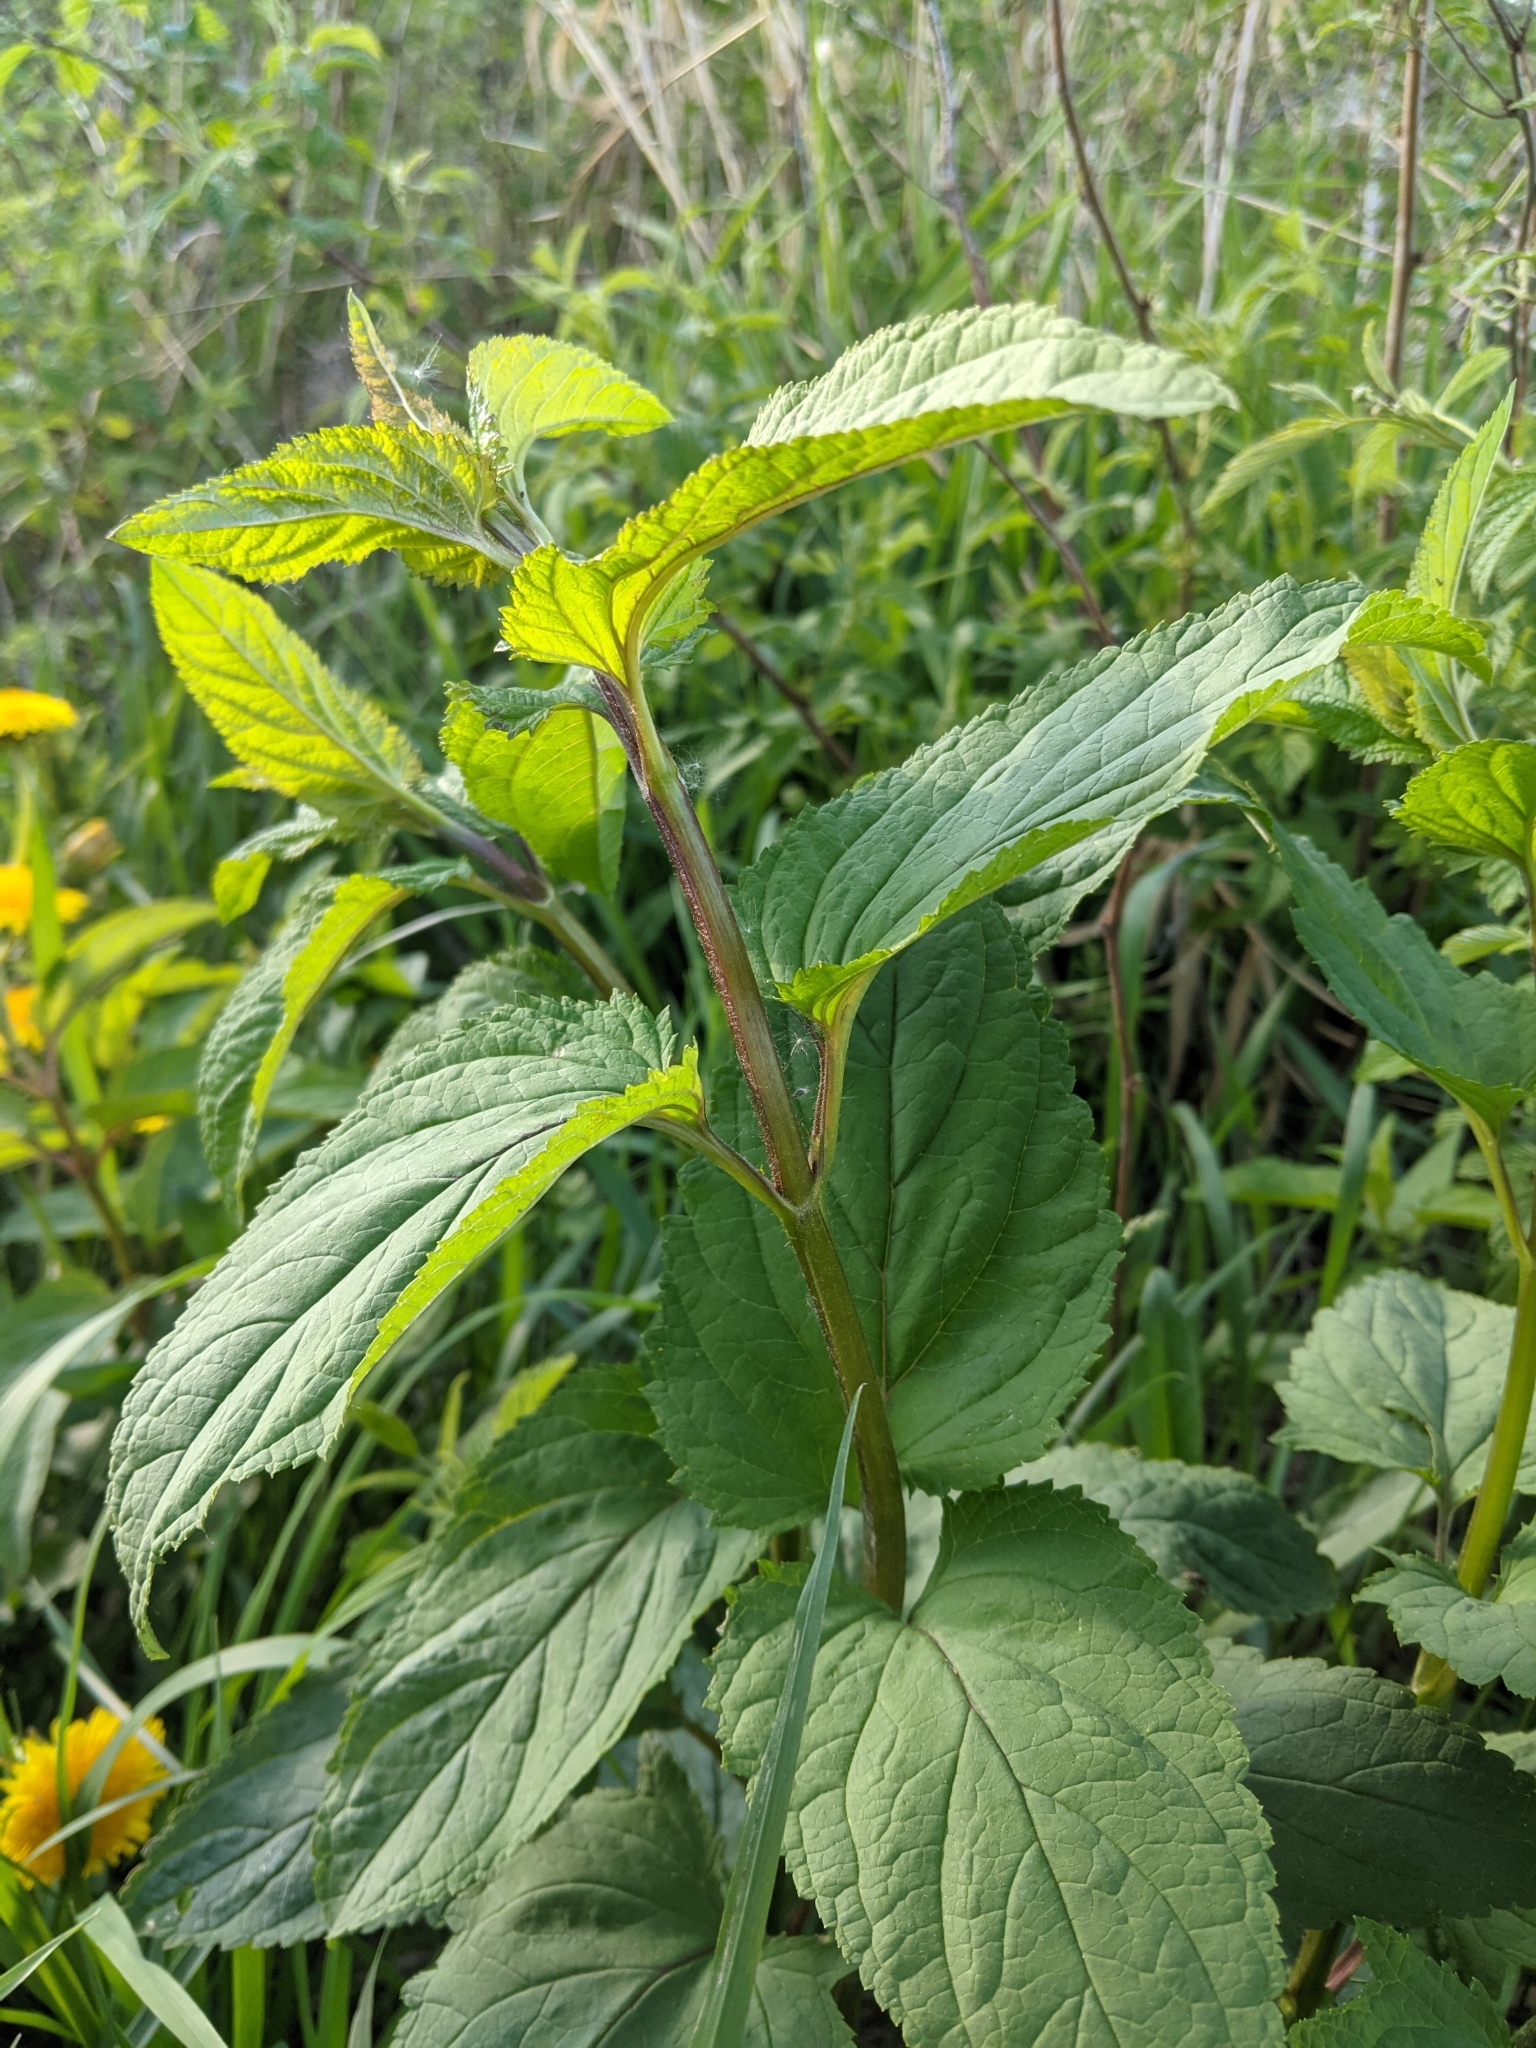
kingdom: Plantae
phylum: Tracheophyta
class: Magnoliopsida
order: Lamiales
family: Scrophulariaceae
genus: Scrophularia
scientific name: Scrophularia nodosa
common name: Common figwort
